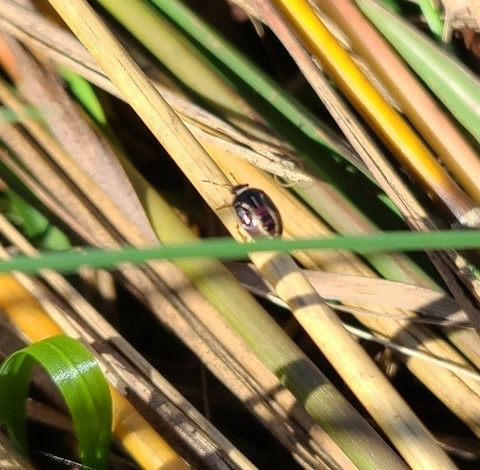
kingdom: Animalia
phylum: Arthropoda
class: Insecta
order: Hemiptera
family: Pentatomidae
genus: Mormidea
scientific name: Mormidea lugens
